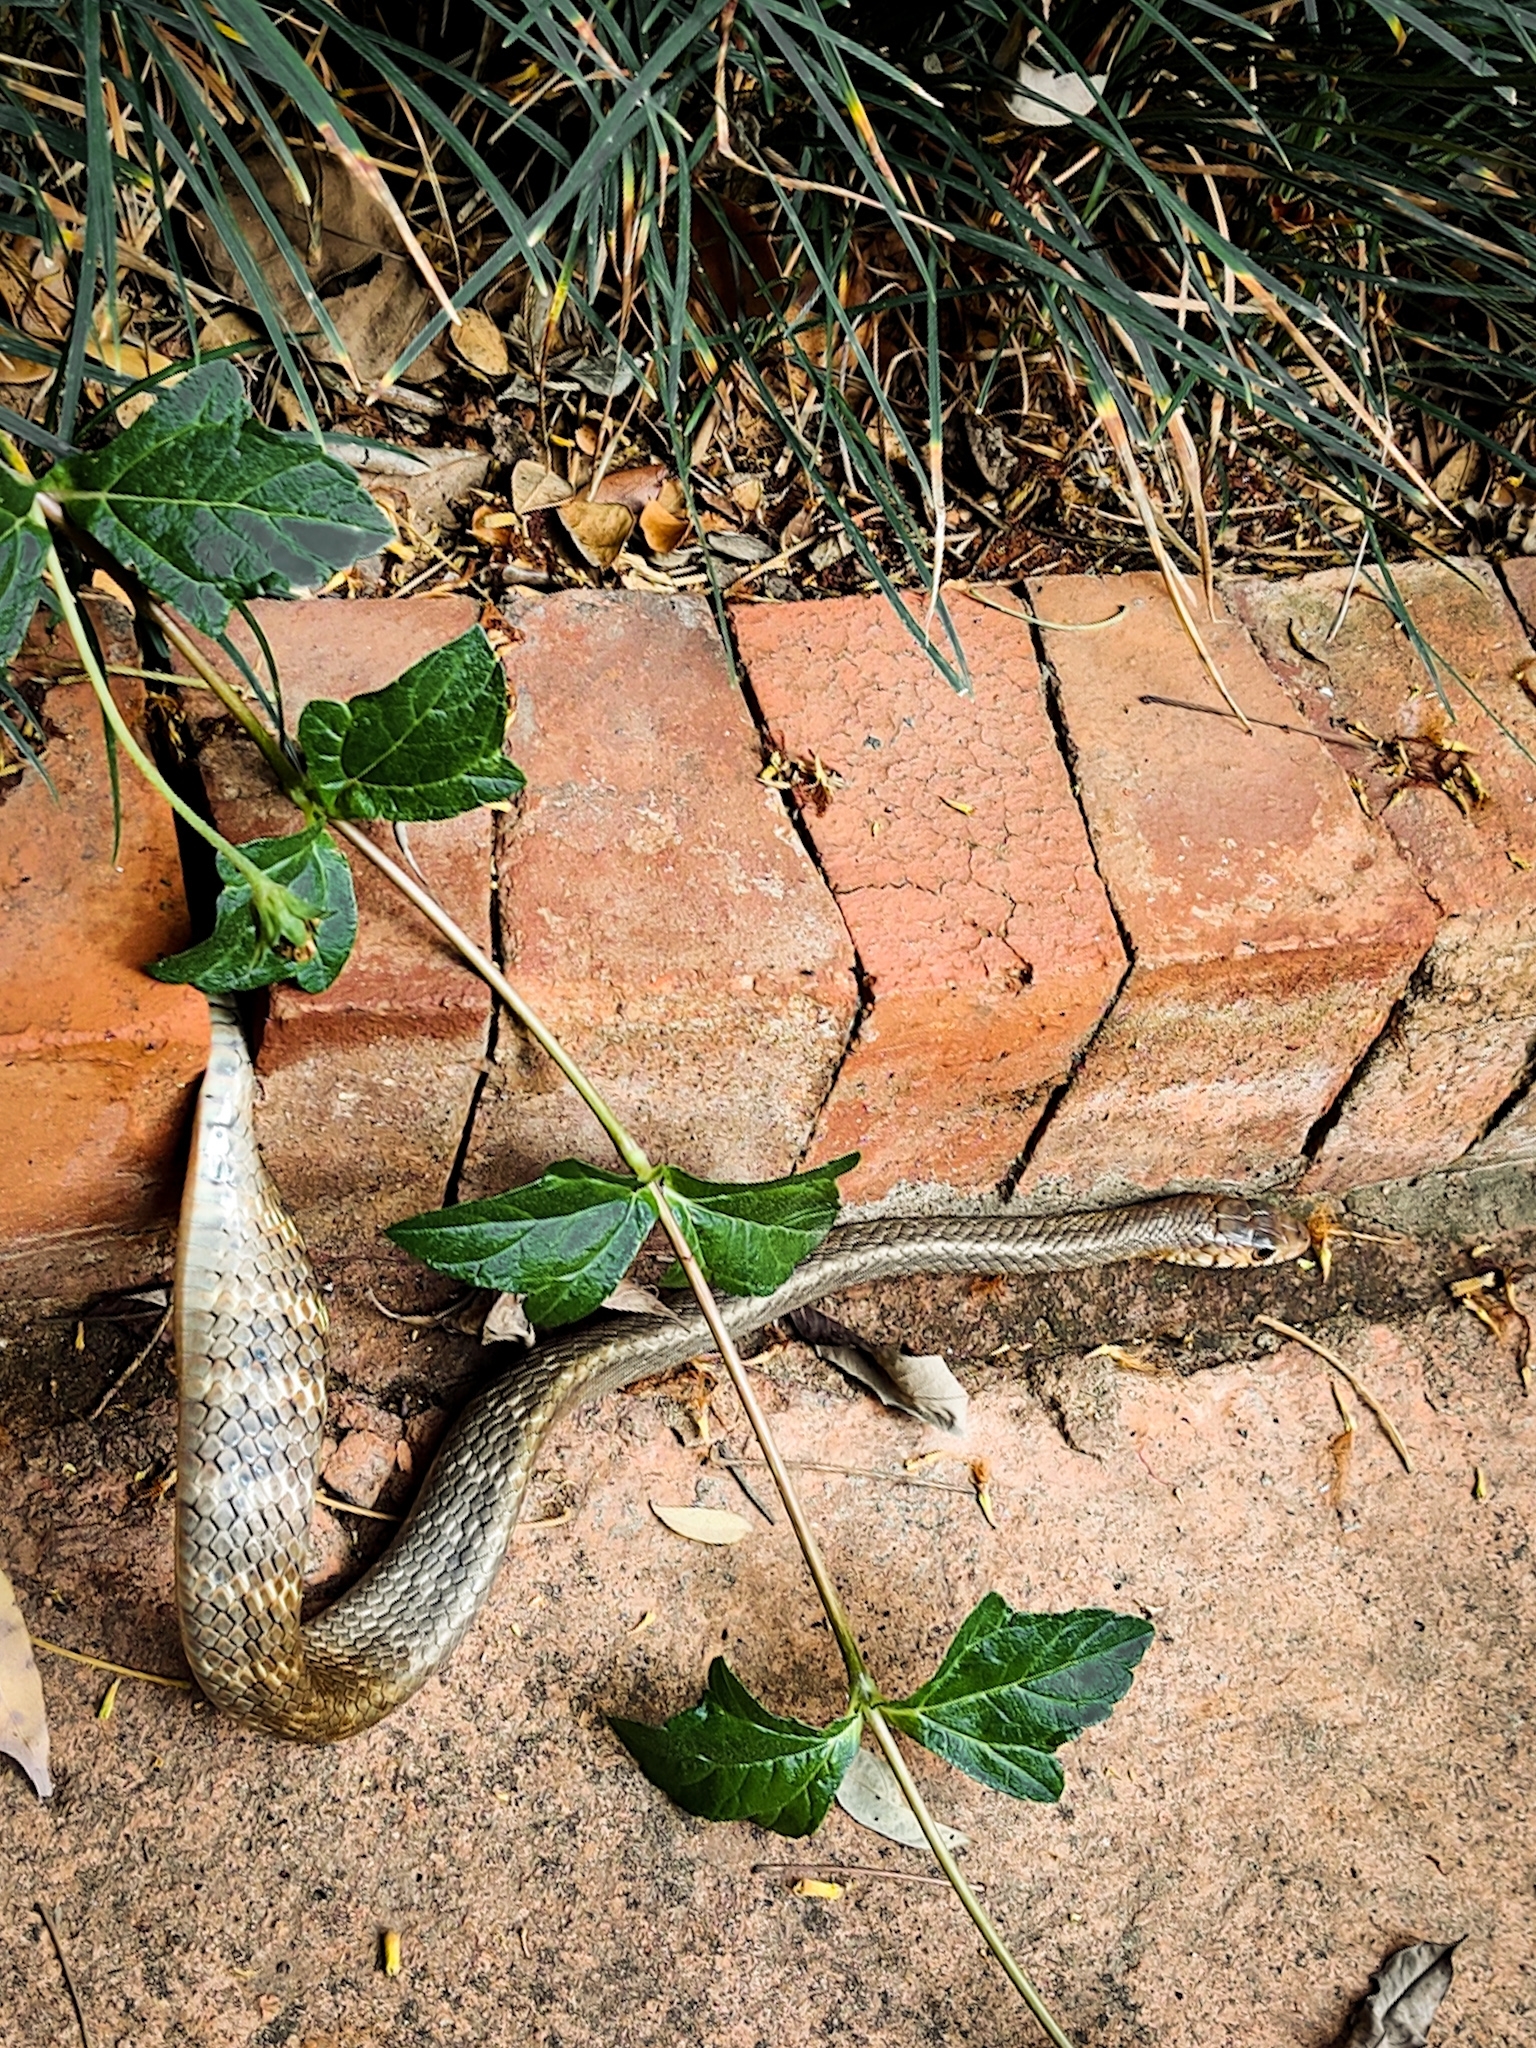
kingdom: Animalia
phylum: Chordata
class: Squamata
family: Colubridae
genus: Ptyas
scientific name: Ptyas mucosa
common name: Oriental ratsnake
